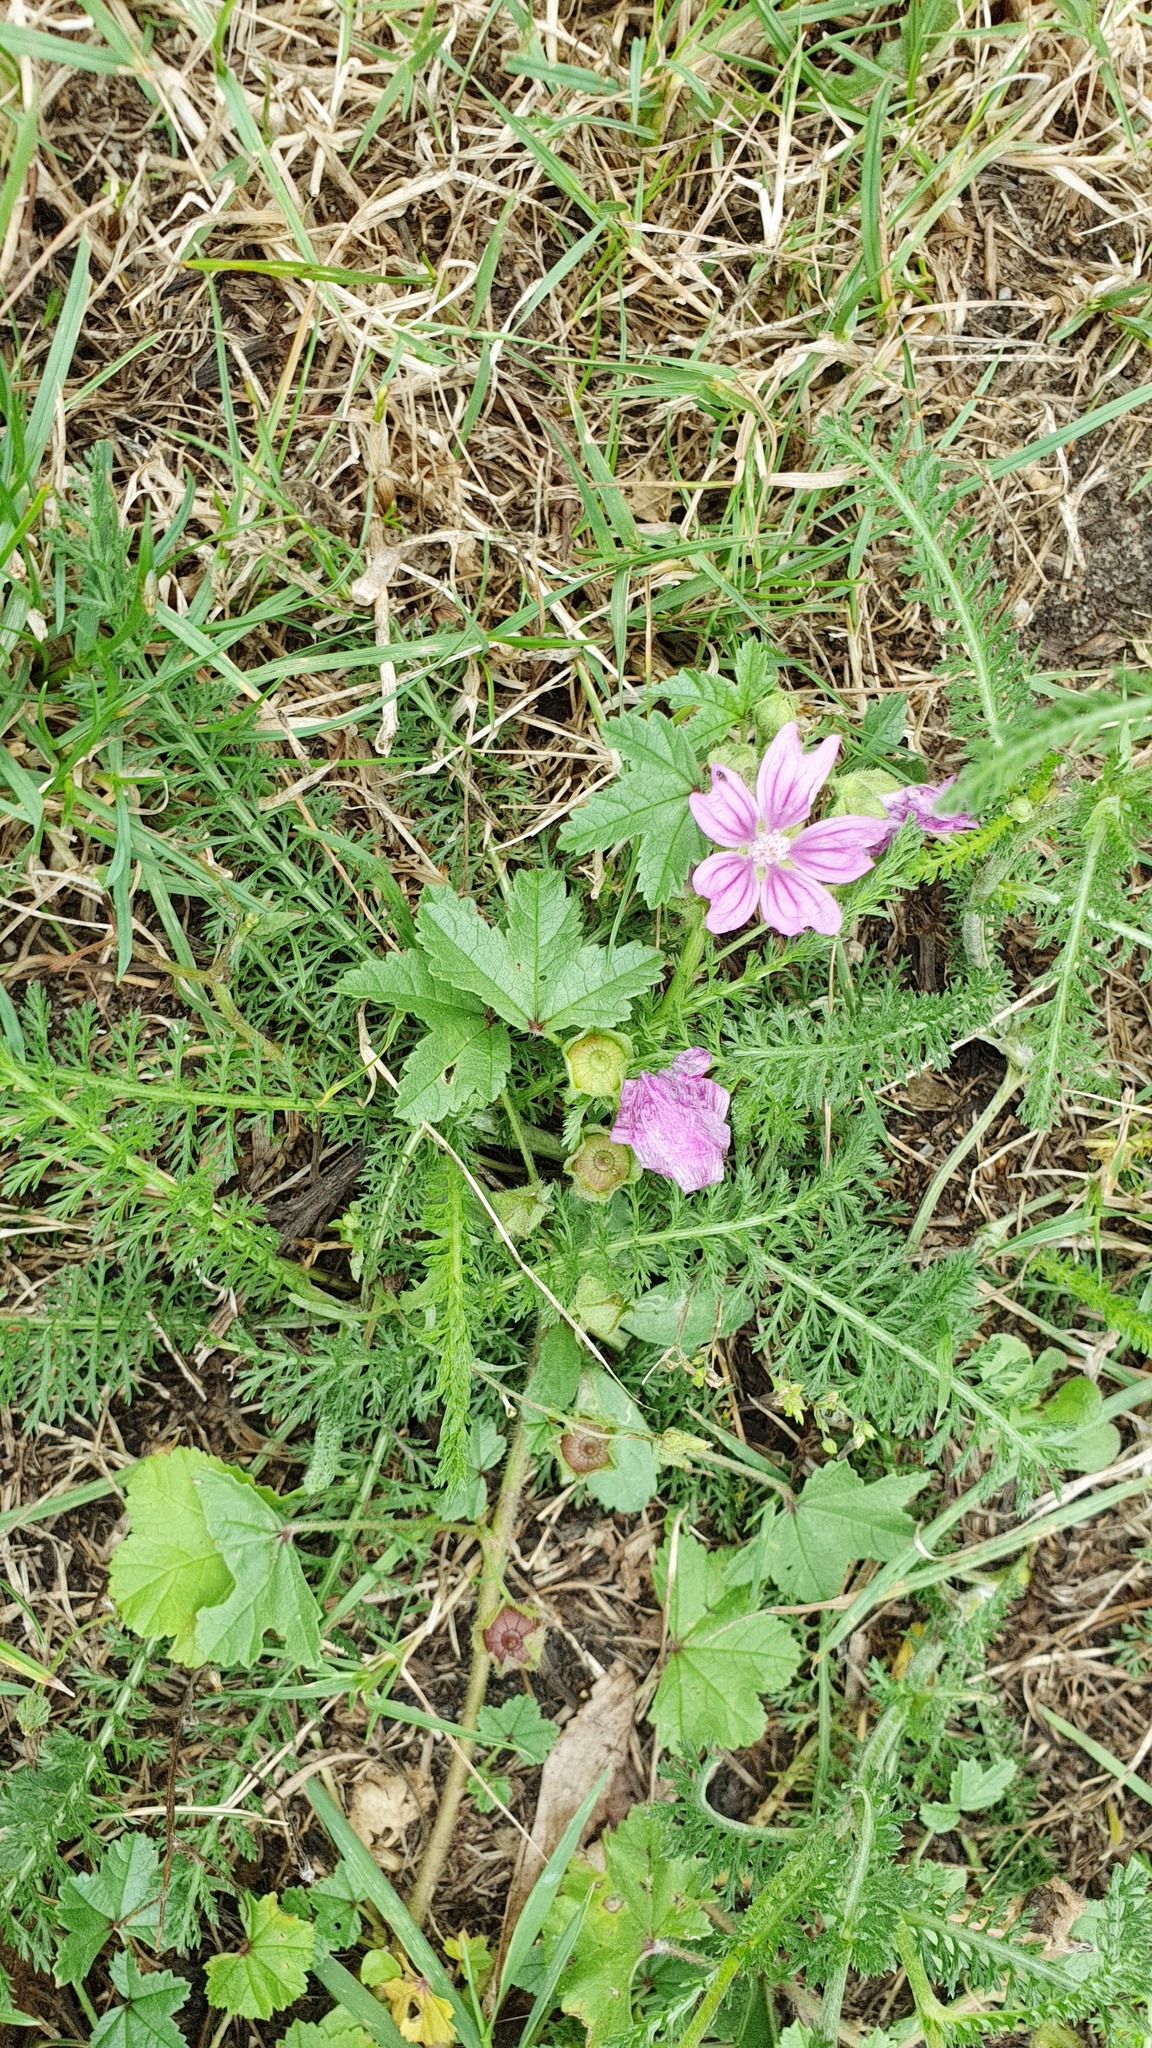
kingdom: Plantae
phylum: Tracheophyta
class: Magnoliopsida
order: Malvales
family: Malvaceae
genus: Malva
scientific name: Malva sylvestris
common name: Common mallow
